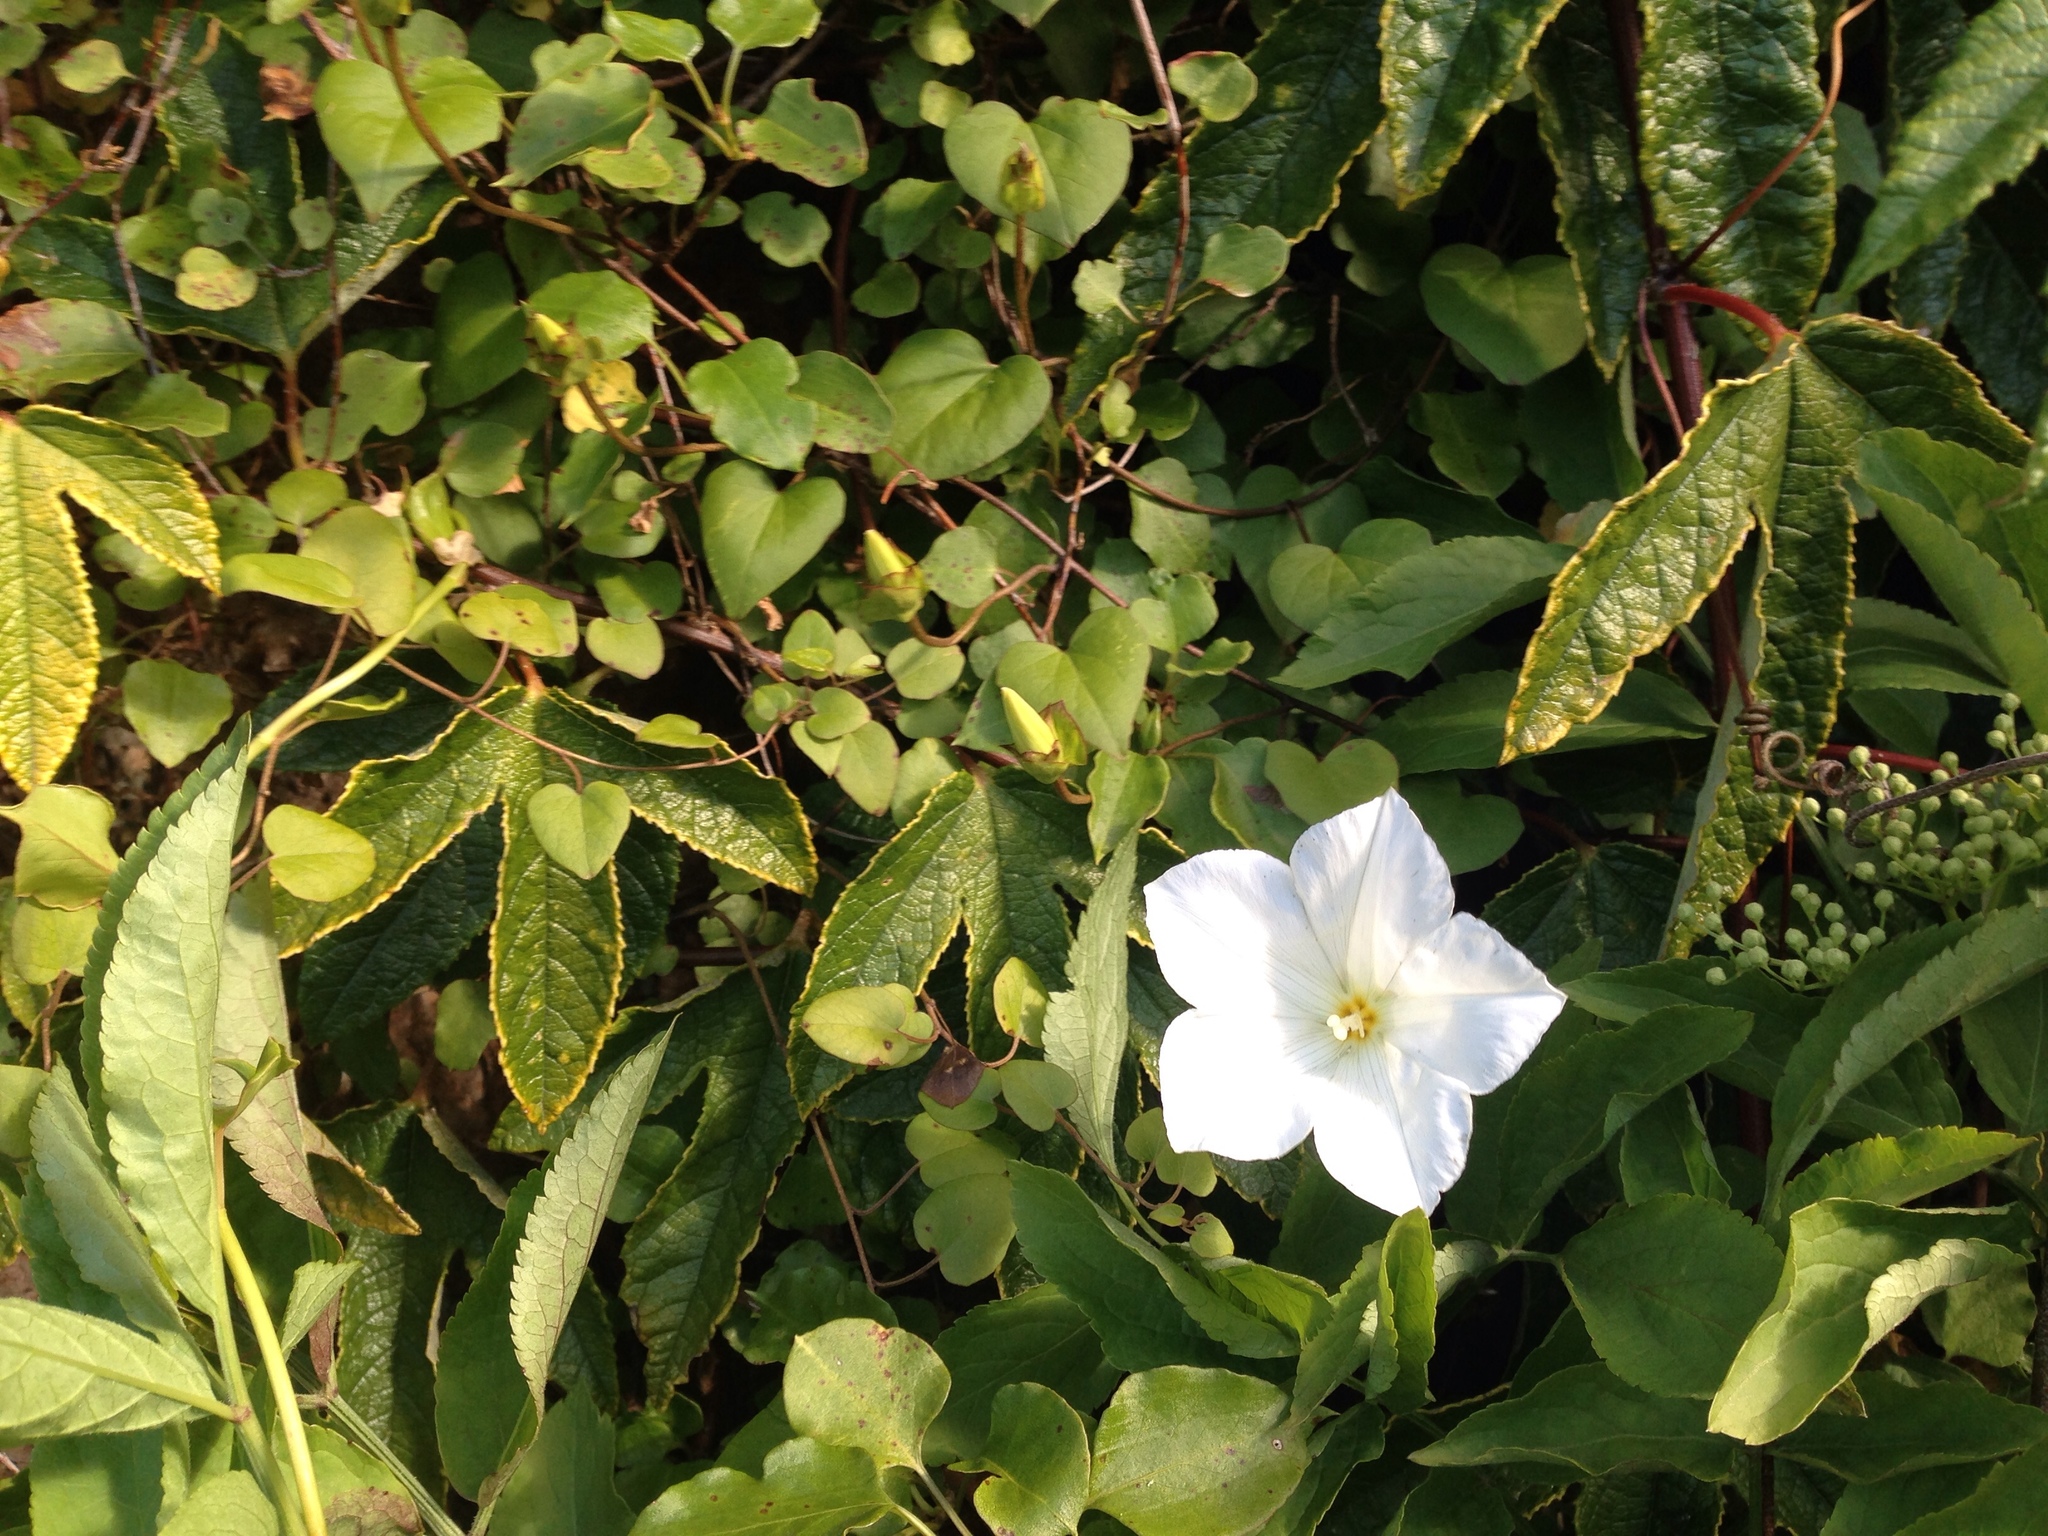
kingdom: Plantae
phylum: Tracheophyta
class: Magnoliopsida
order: Solanales
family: Convolvulaceae
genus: Calystegia
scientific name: Calystegia tuguriorum
